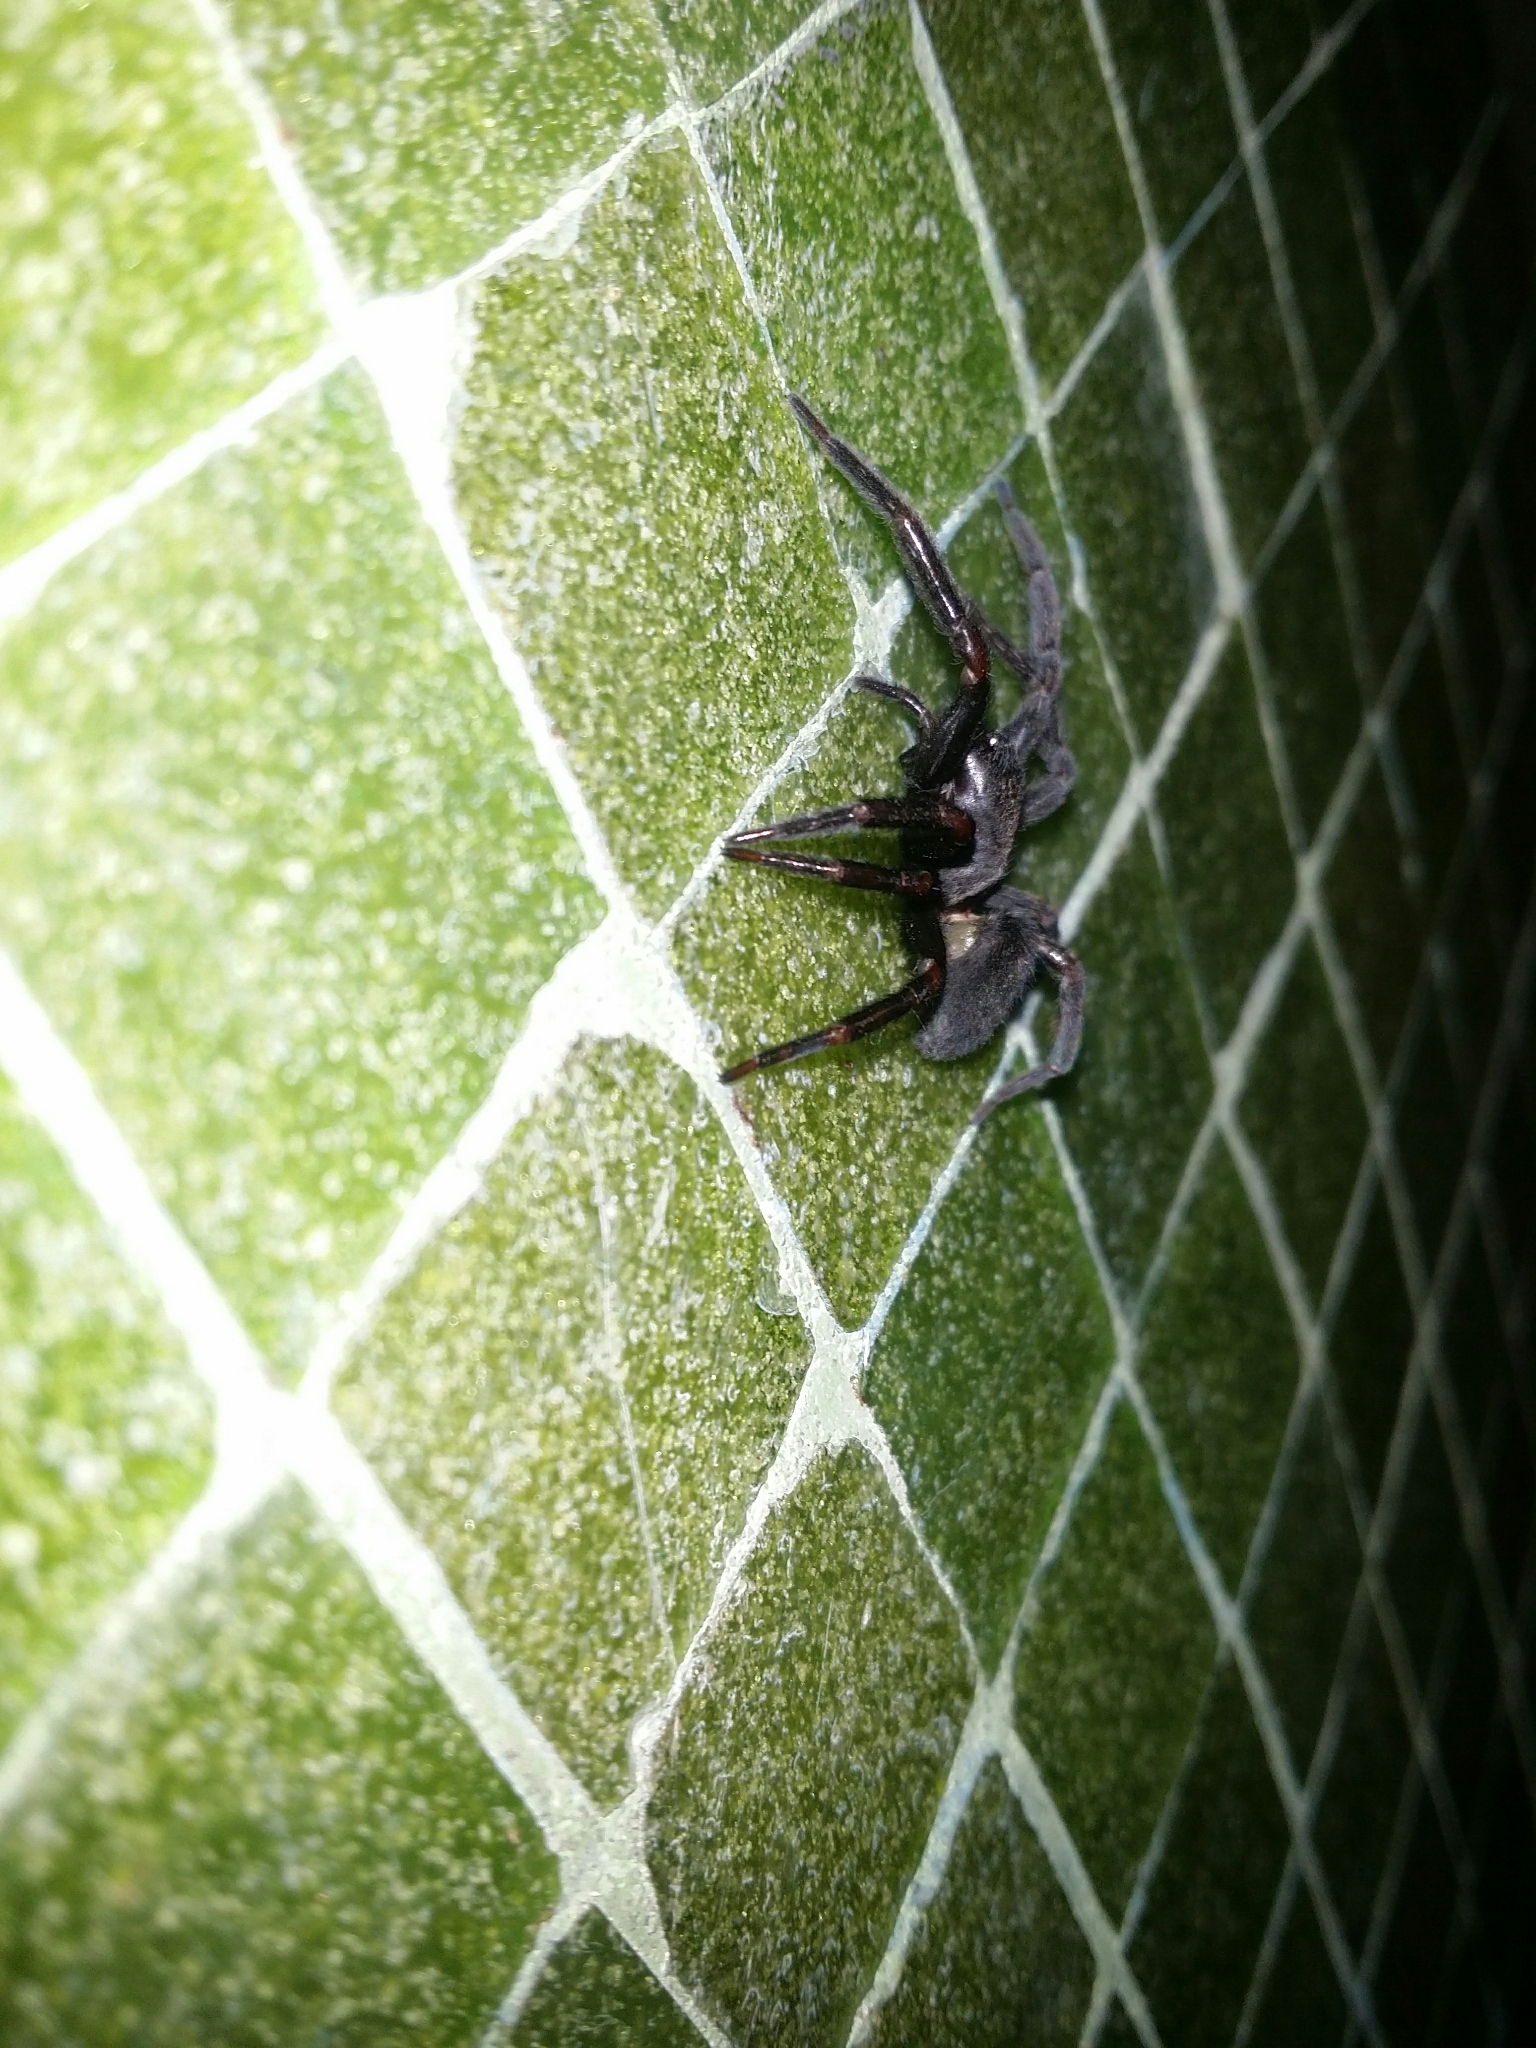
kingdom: Animalia
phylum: Arthropoda
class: Arachnida
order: Araneae
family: Desidae
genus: Badumna
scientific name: Badumna insignis
